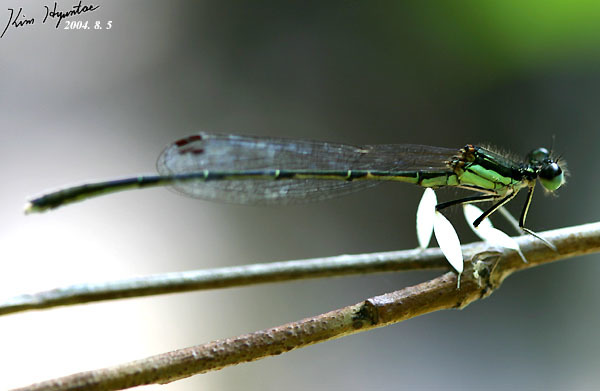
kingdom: Animalia
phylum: Arthropoda
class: Insecta
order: Odonata
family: Platycnemididae
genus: Platycnemis
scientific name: Platycnemis phyllopoda
